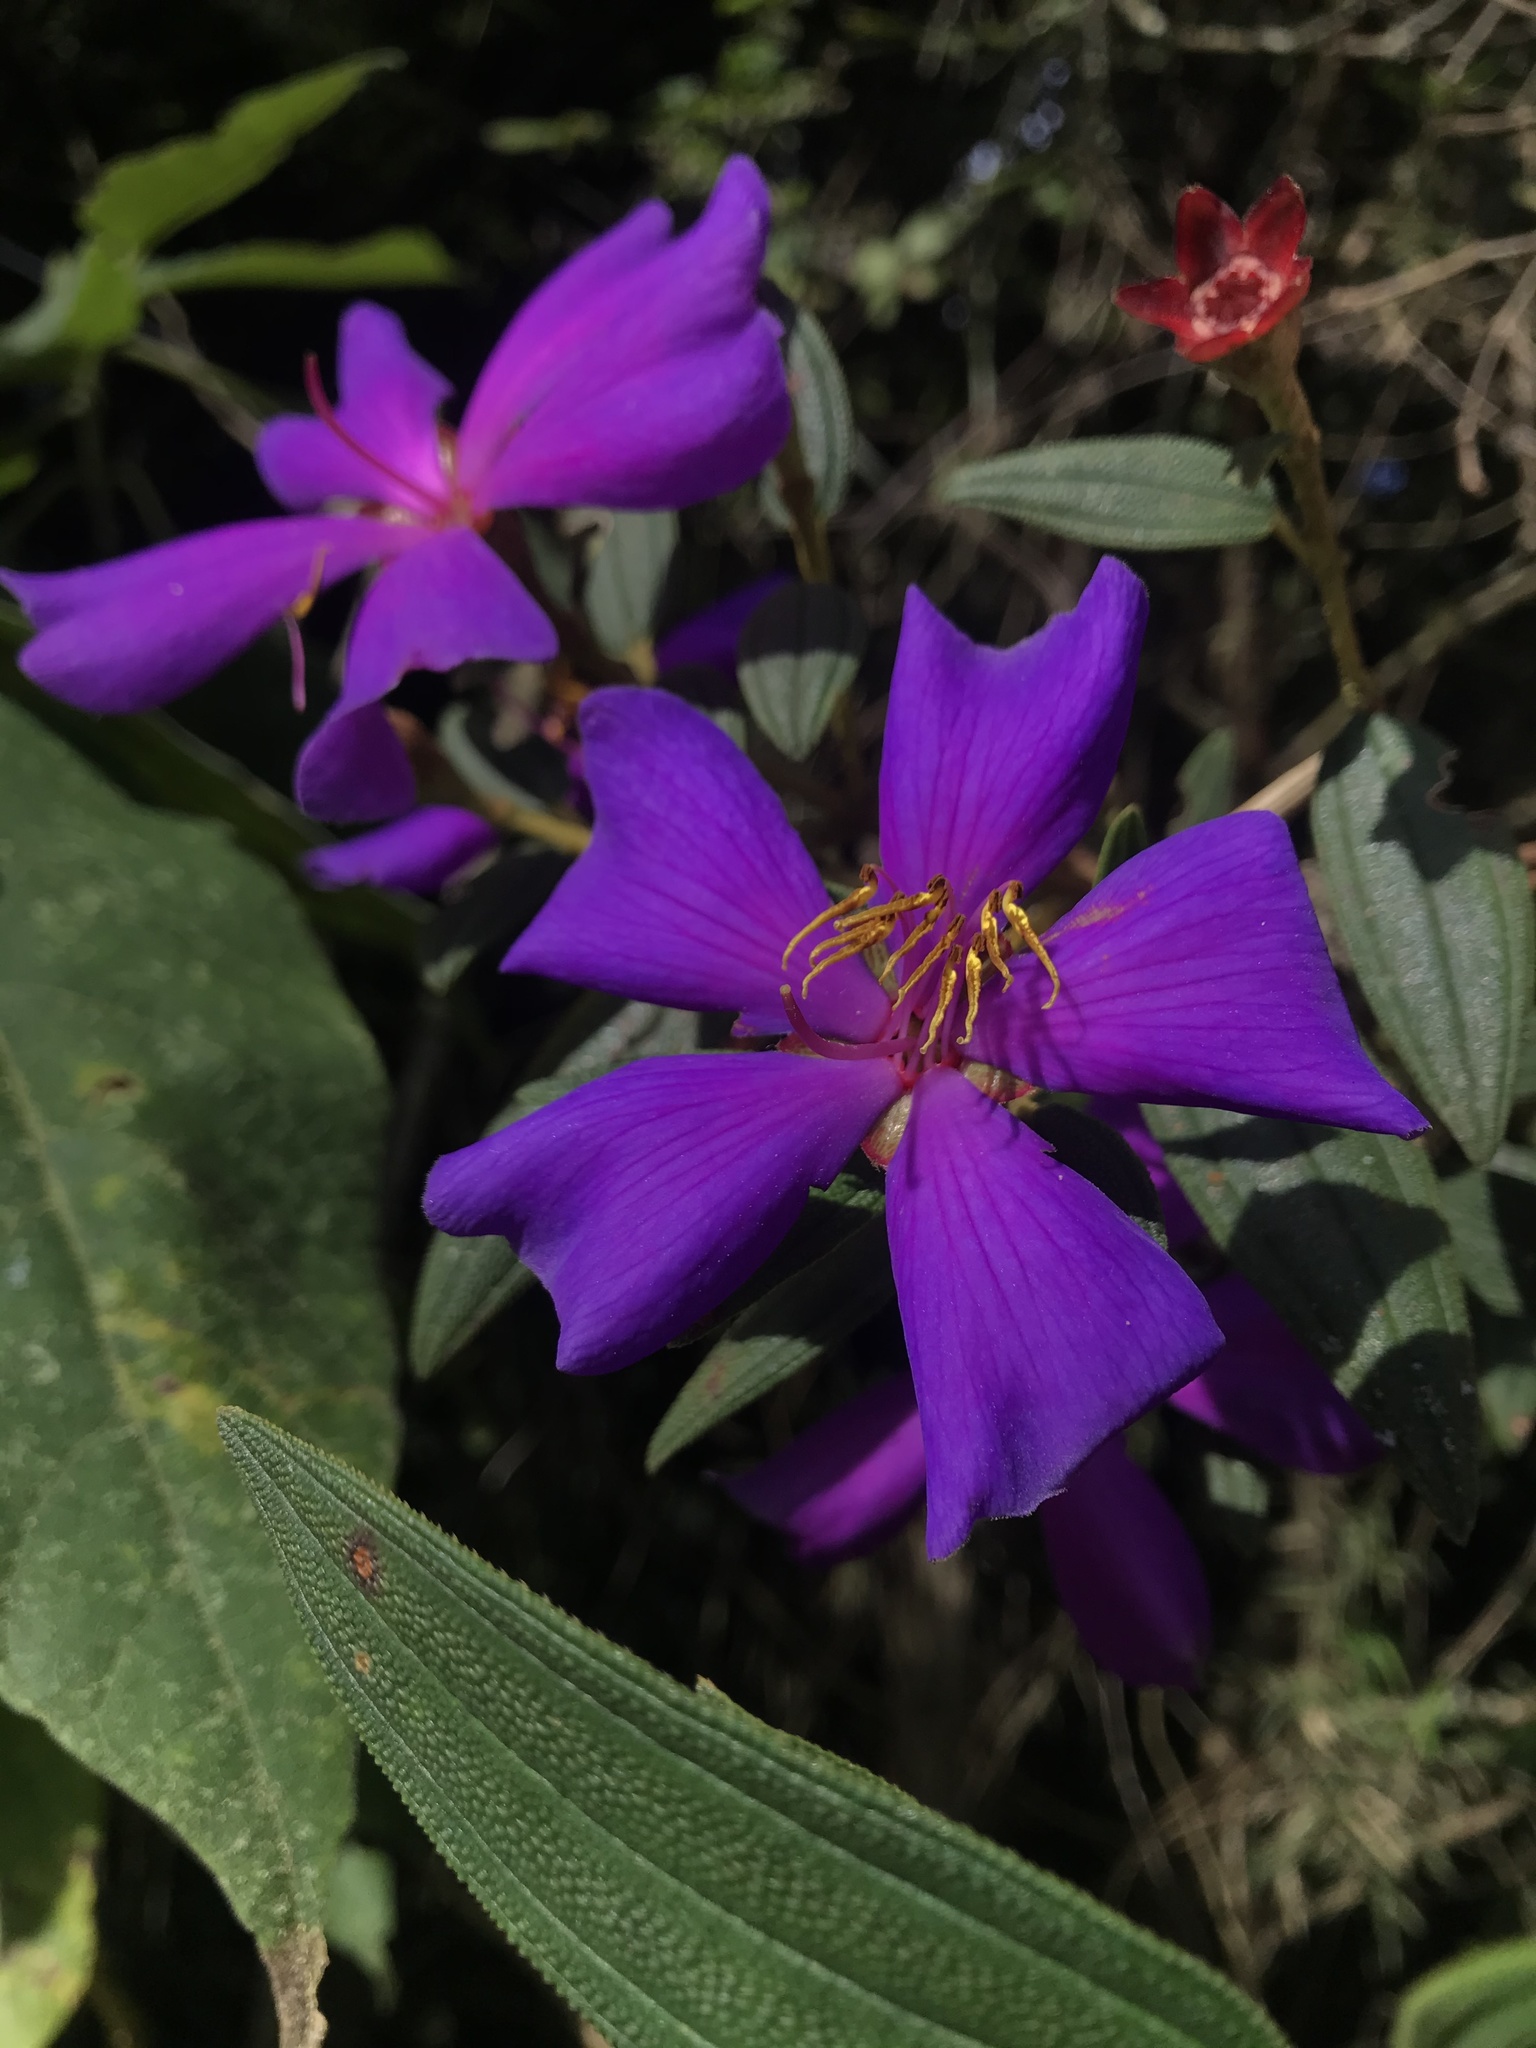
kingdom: Plantae
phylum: Tracheophyta
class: Magnoliopsida
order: Myrtales
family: Melastomataceae
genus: Andesanthus
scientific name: Andesanthus paleaceus
